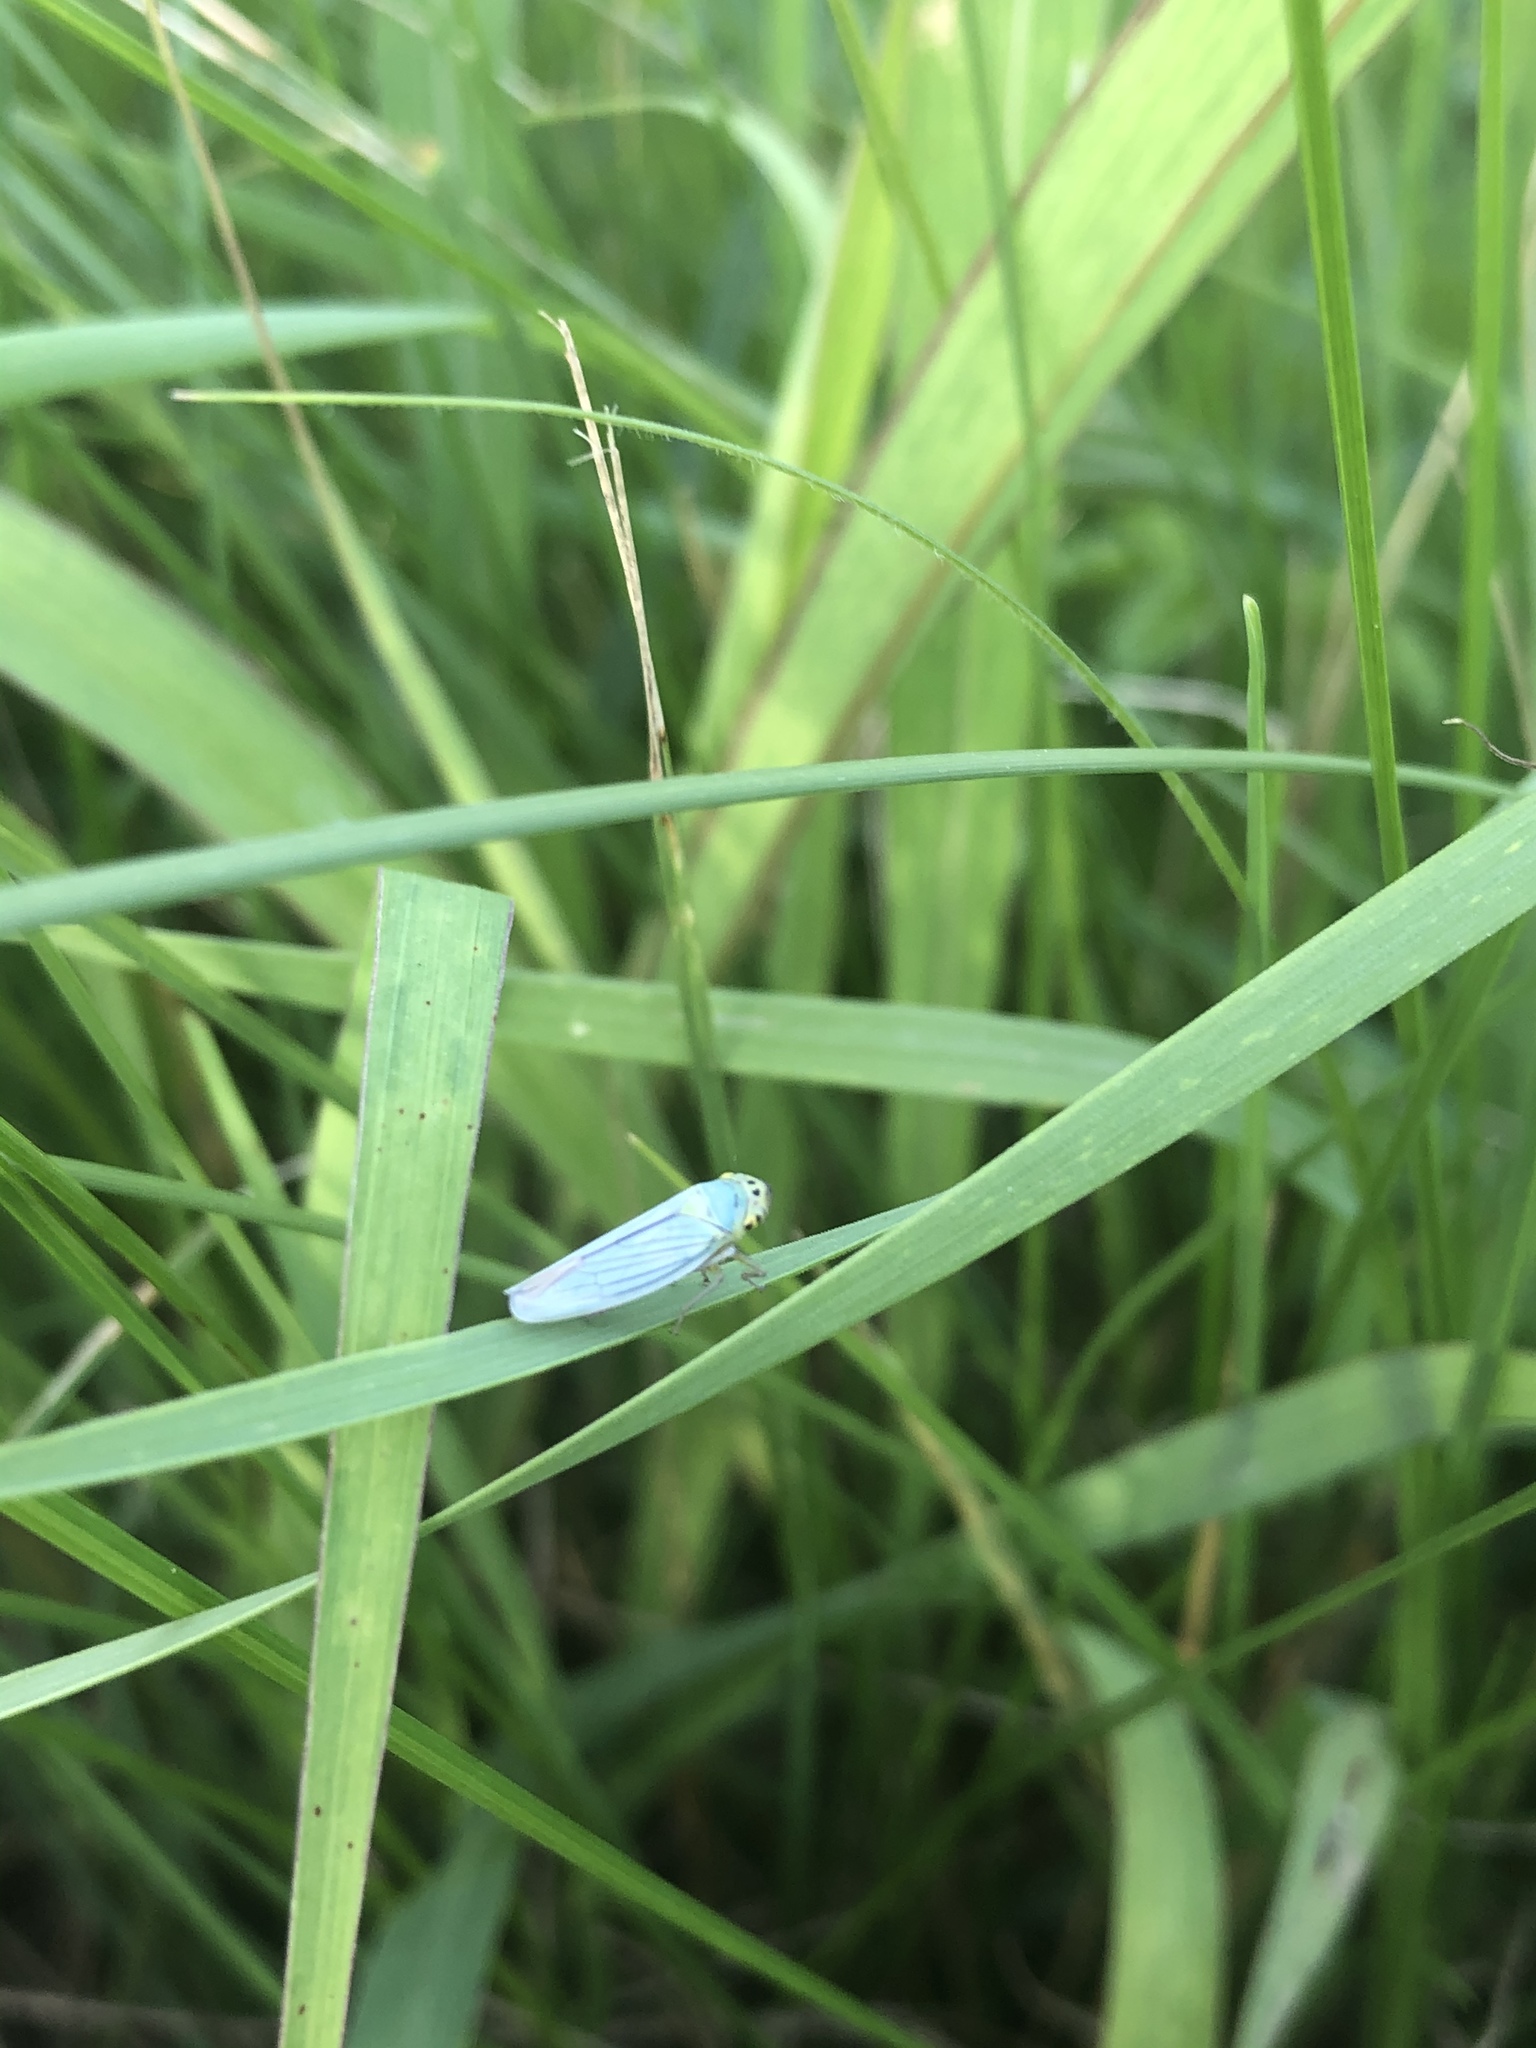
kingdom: Animalia
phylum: Arthropoda
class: Insecta
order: Hemiptera
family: Cicadellidae
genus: Cicadella
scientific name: Cicadella viridis
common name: Leafhopper
